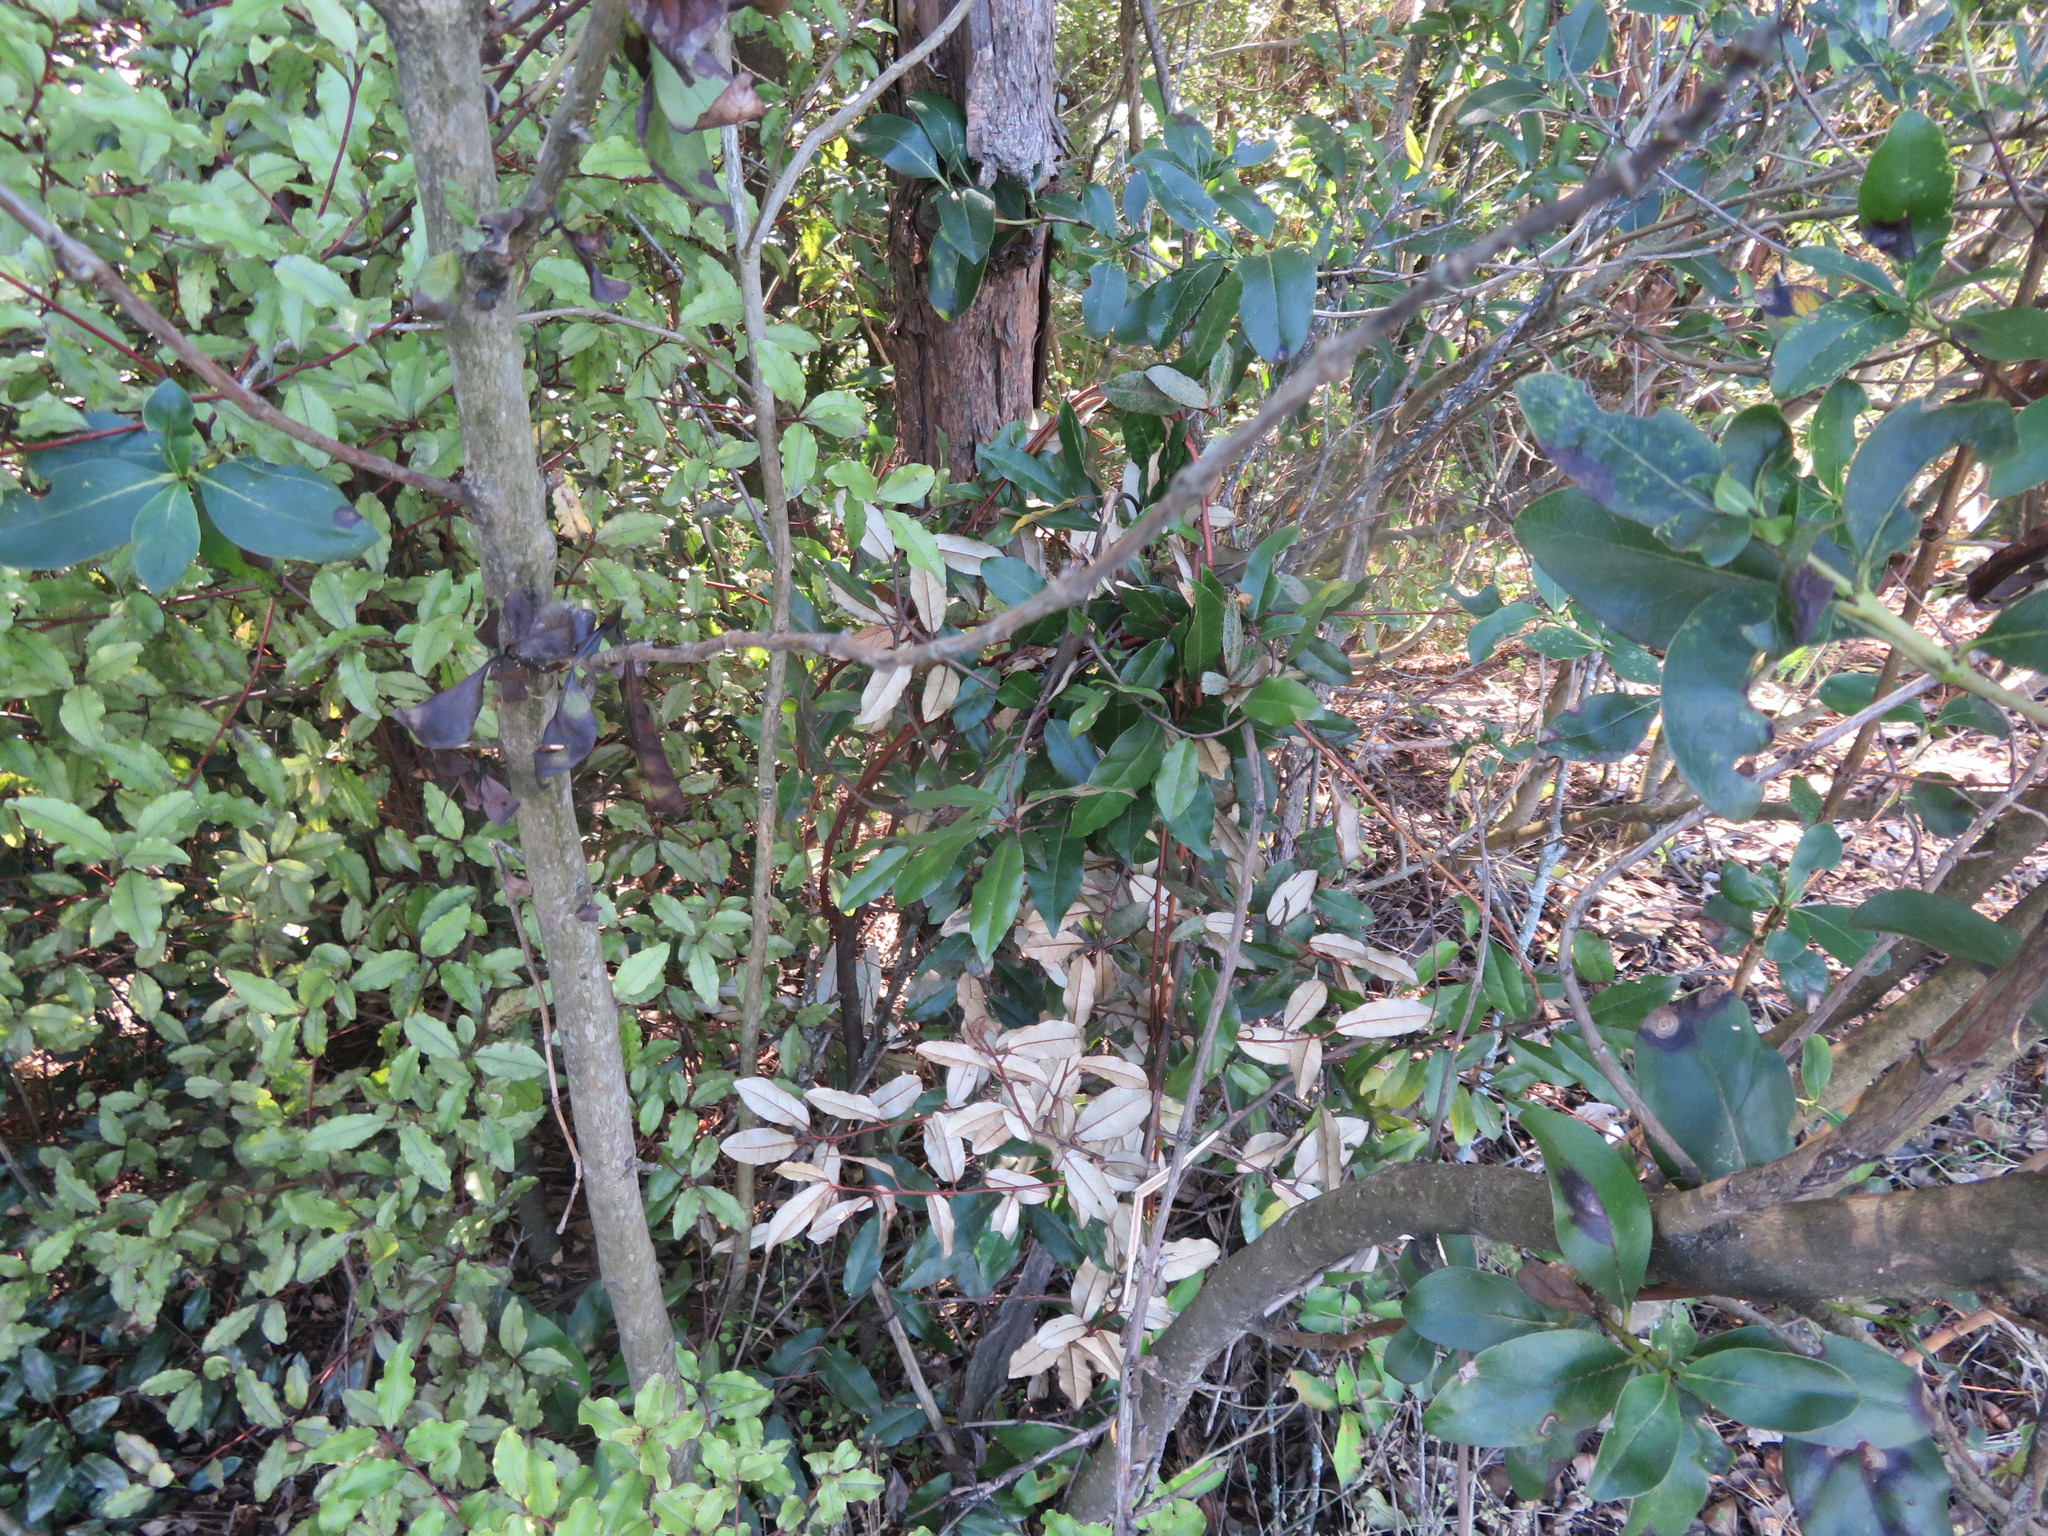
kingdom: Plantae
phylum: Tracheophyta
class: Magnoliopsida
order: Rosales
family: Elaeagnaceae
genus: Elaeagnus
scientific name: Elaeagnus reflexa
